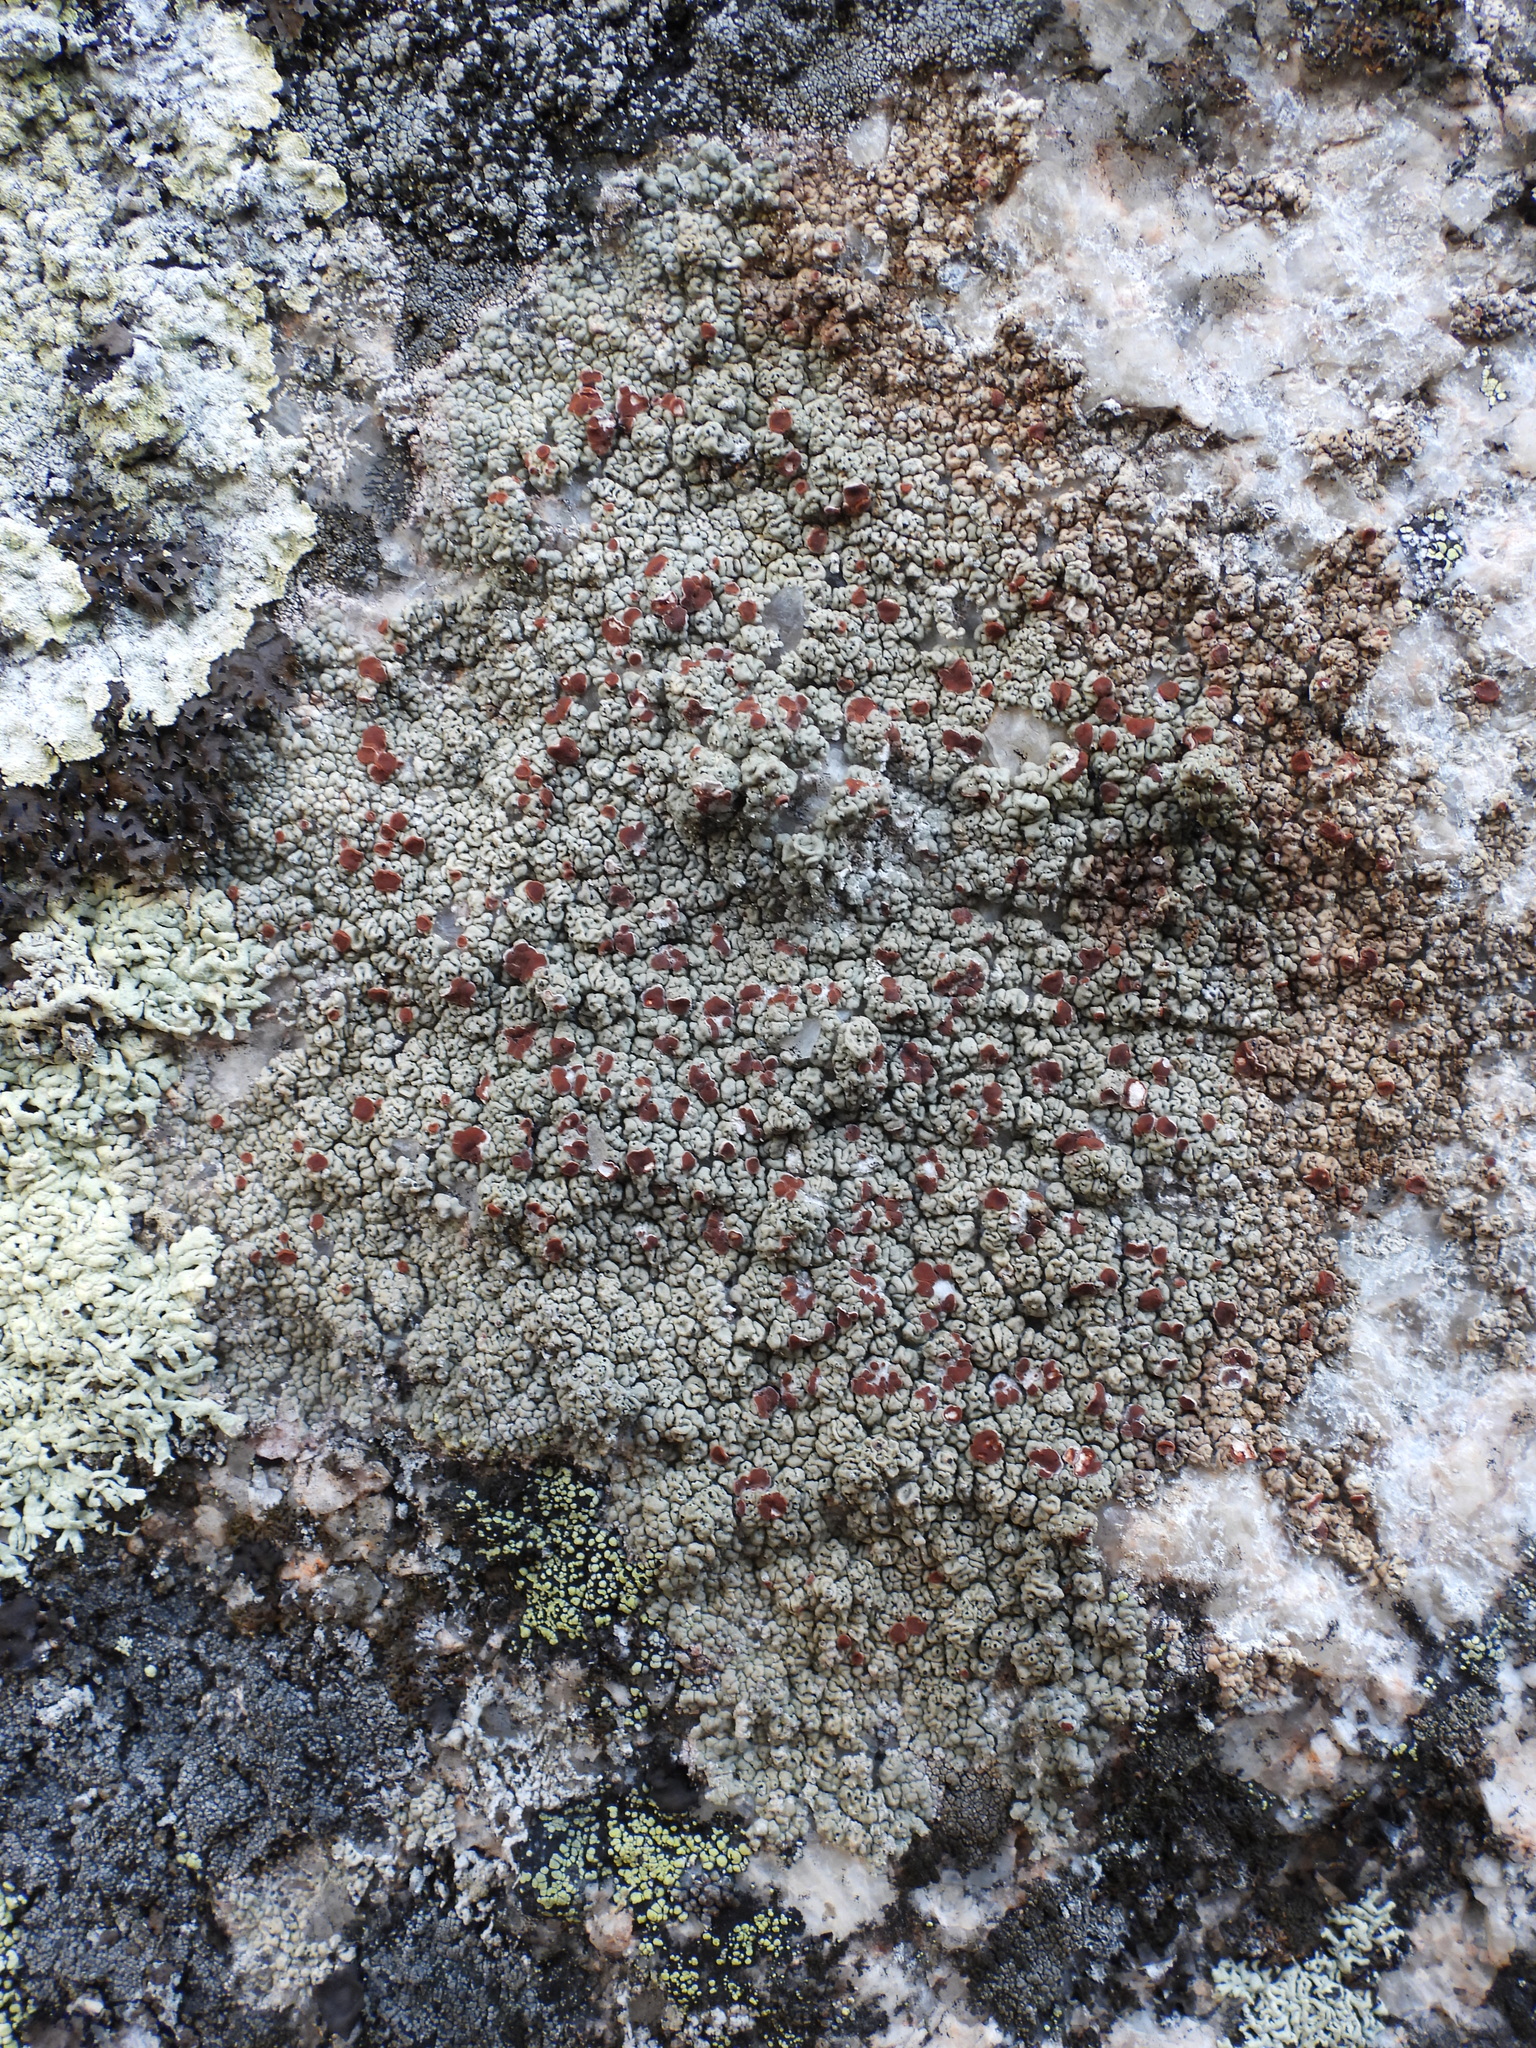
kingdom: Fungi
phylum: Ascomycota
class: Lecanoromycetes
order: Umbilicariales
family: Ophioparmaceae
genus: Ophioparma
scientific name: Ophioparma ventosa
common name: Blood-spot
